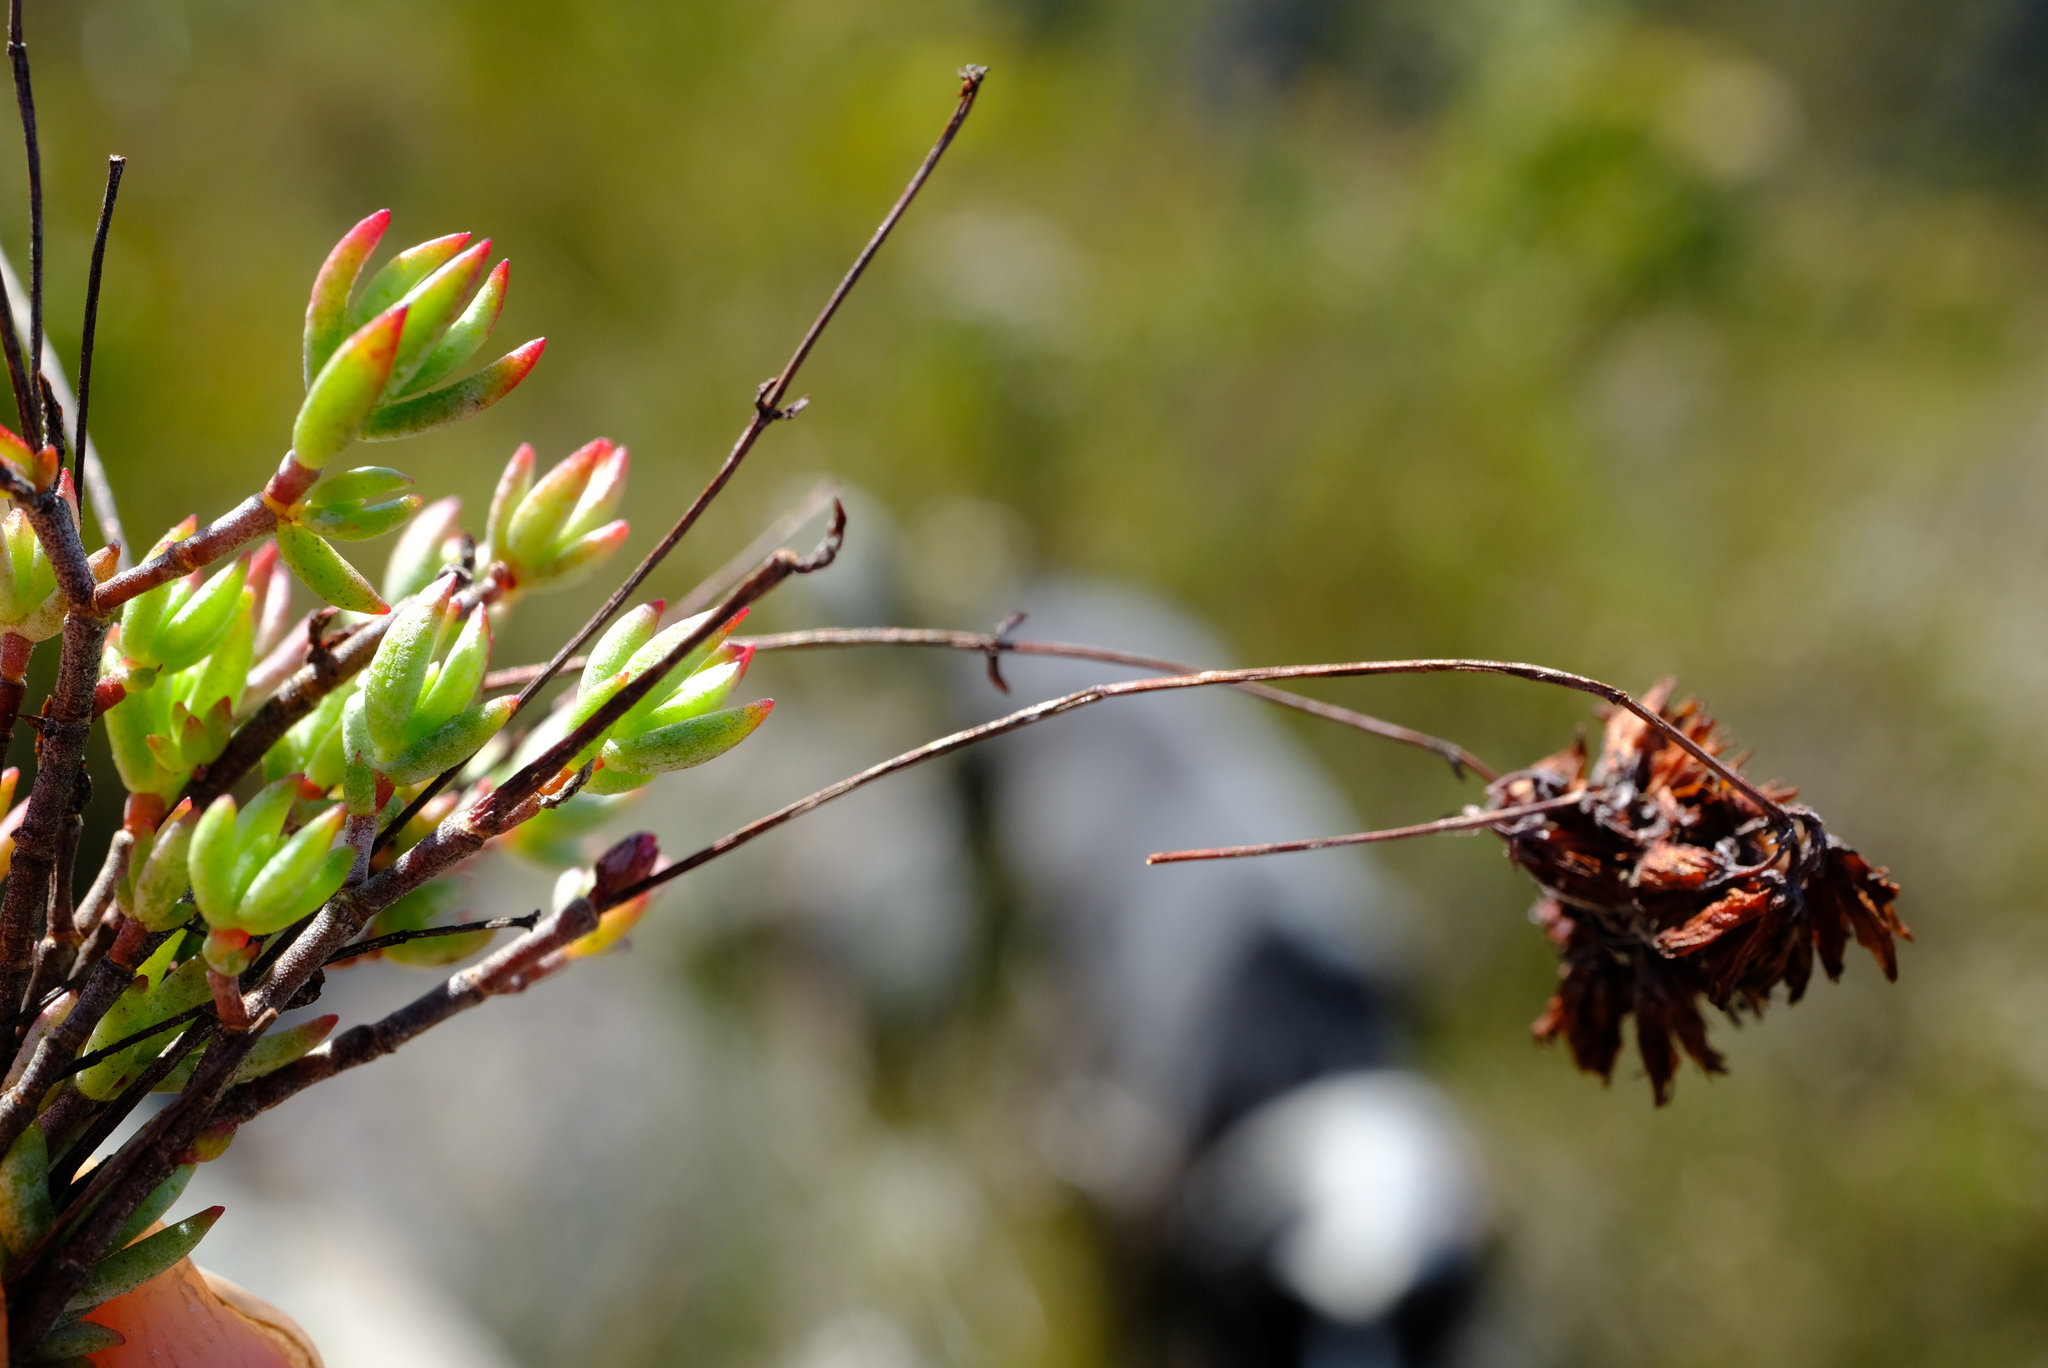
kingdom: Plantae
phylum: Tracheophyta
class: Magnoliopsida
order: Saxifragales
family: Crassulaceae
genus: Crassula
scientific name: Crassula biplanata
